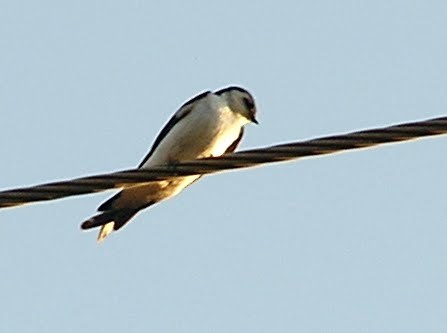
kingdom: Animalia
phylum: Chordata
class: Aves
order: Passeriformes
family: Hirundinidae
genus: Tachycineta
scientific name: Tachycineta thalassina
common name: Violet-green swallow
